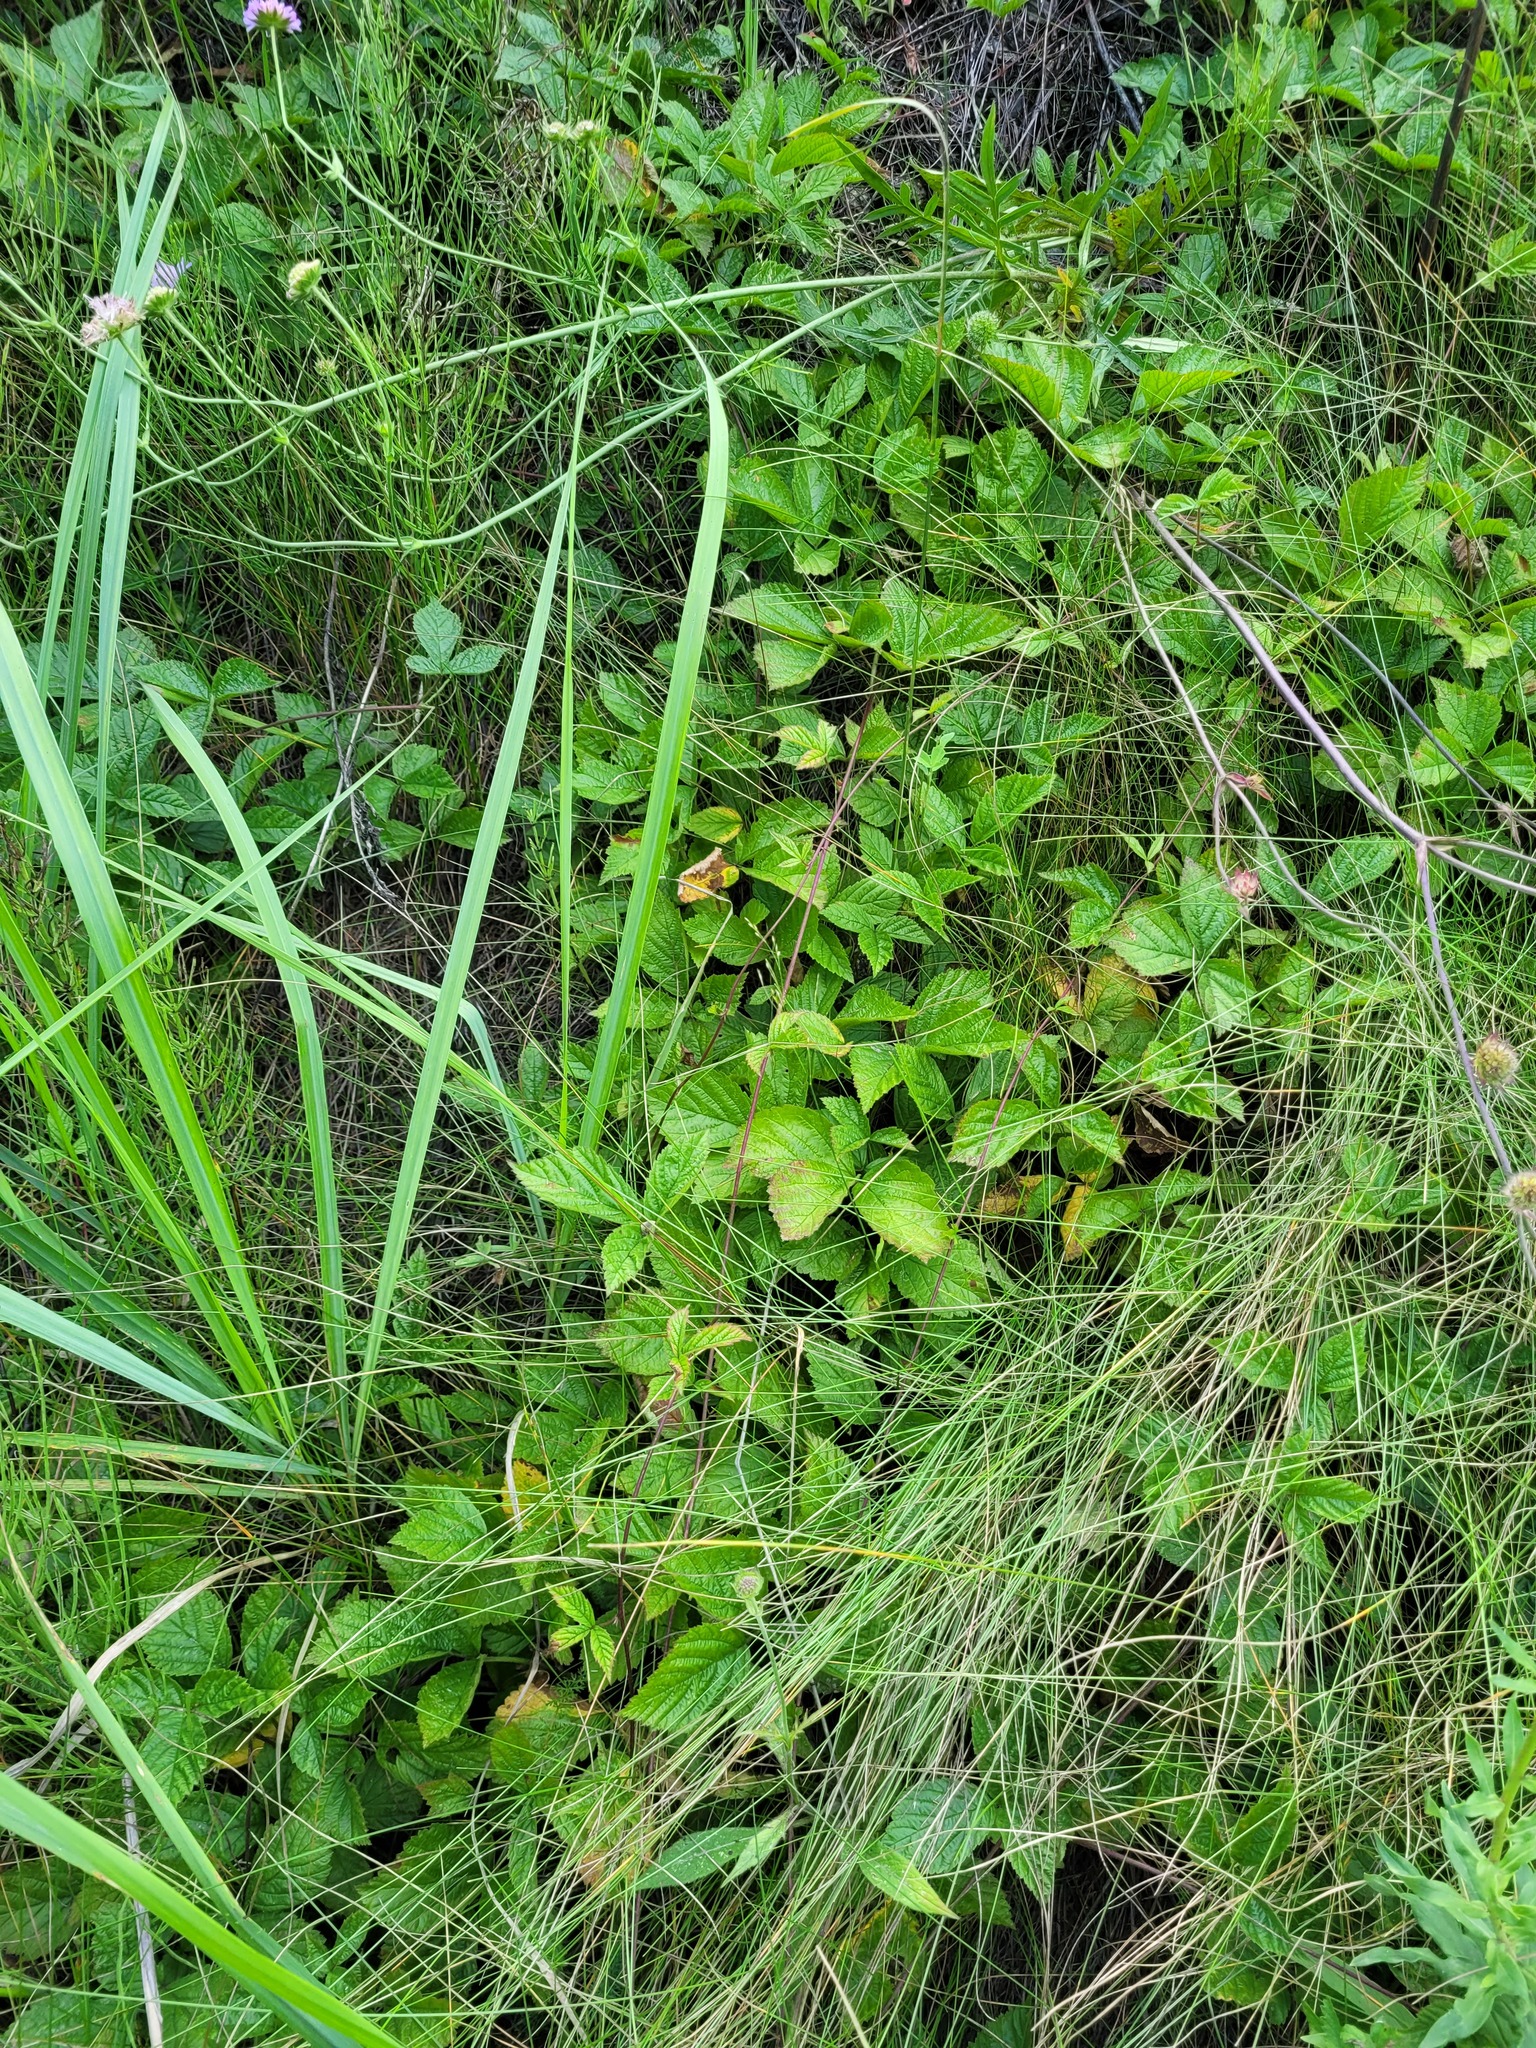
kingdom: Plantae
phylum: Tracheophyta
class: Magnoliopsida
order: Rosales
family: Rosaceae
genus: Rubus
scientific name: Rubus saxatilis
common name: Stone bramble
